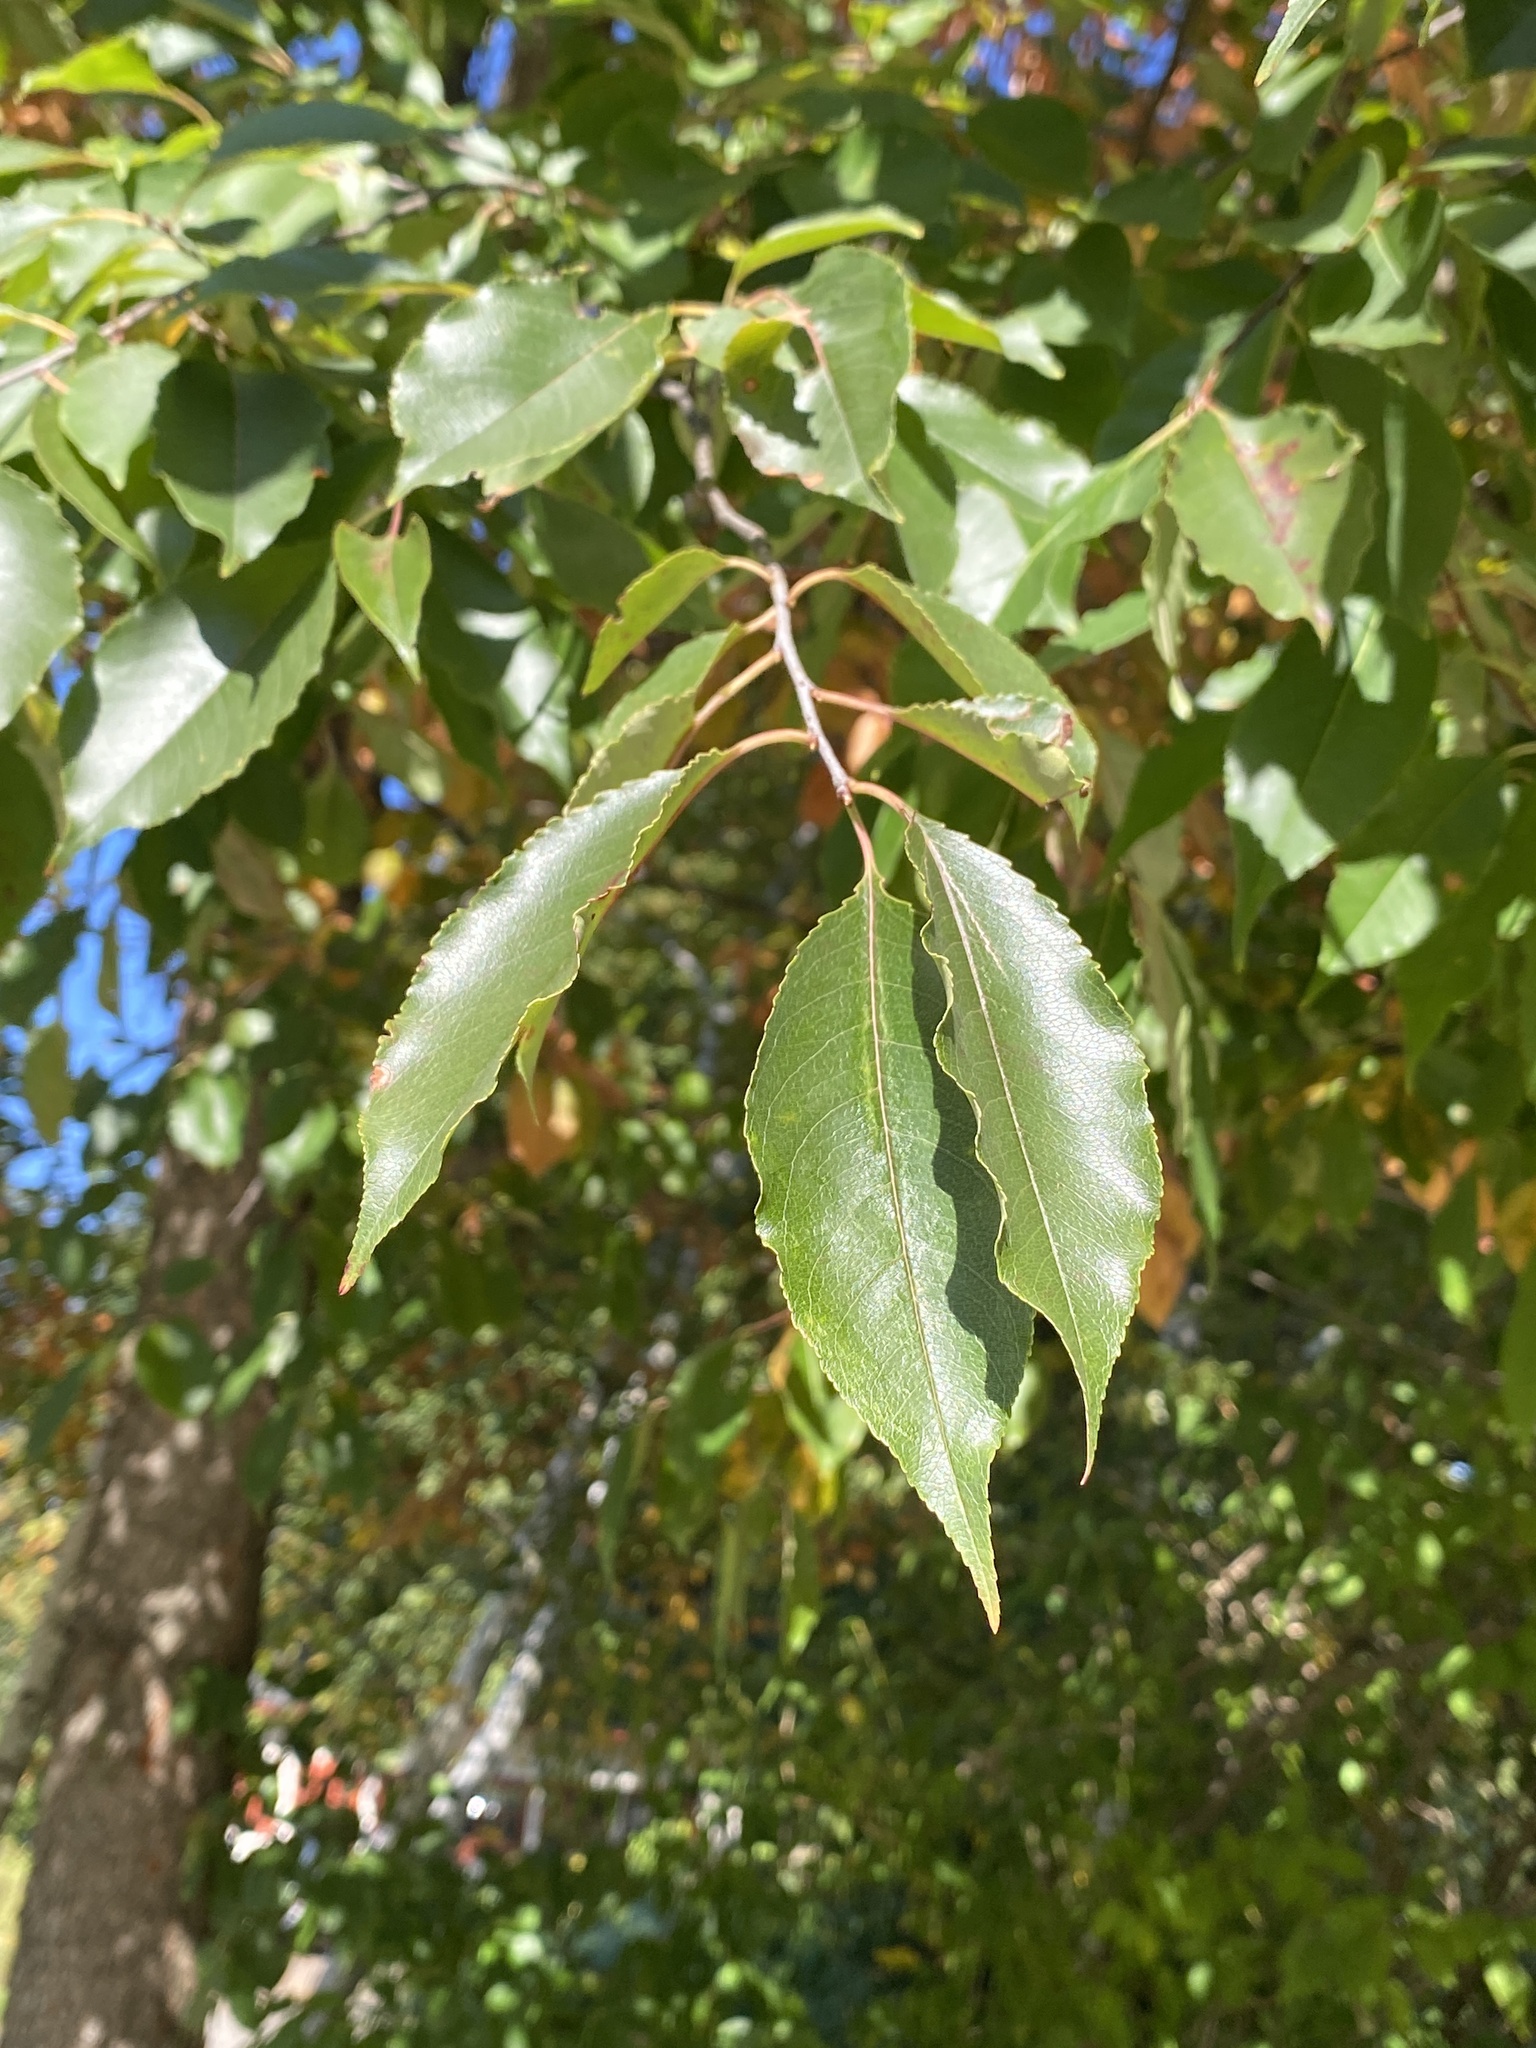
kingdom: Plantae
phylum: Tracheophyta
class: Magnoliopsida
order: Rosales
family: Rosaceae
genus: Prunus
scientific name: Prunus serotina
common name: Black cherry
